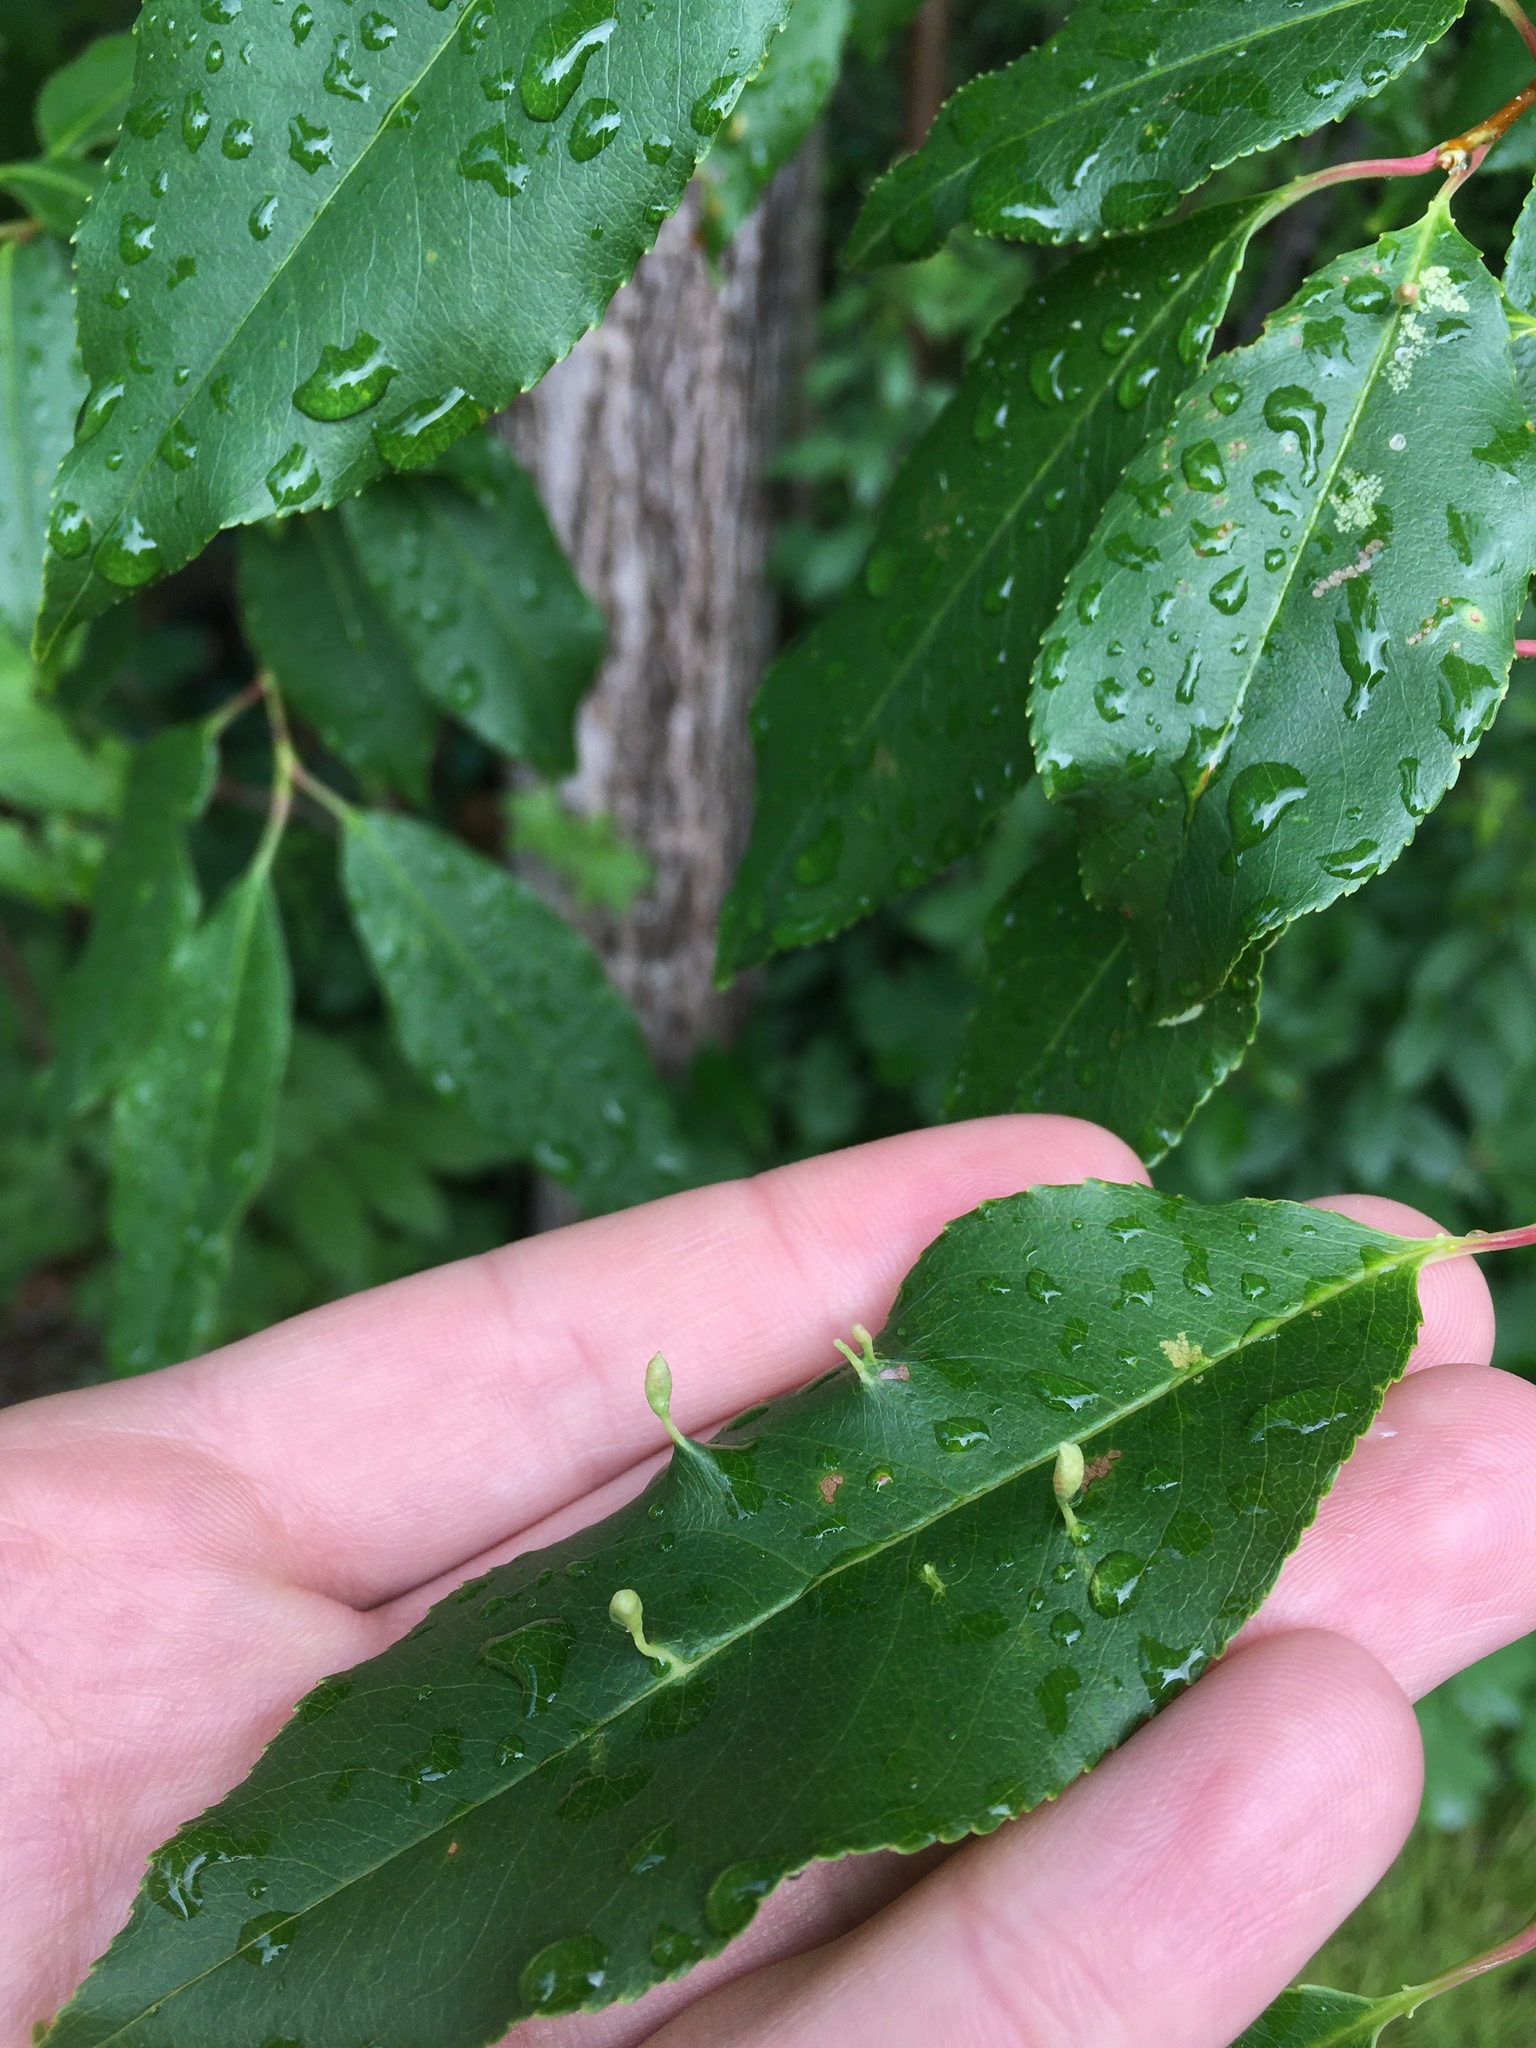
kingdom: Animalia
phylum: Arthropoda
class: Arachnida
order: Trombidiformes
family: Eriophyidae
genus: Eriophyes
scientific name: Eriophyes
